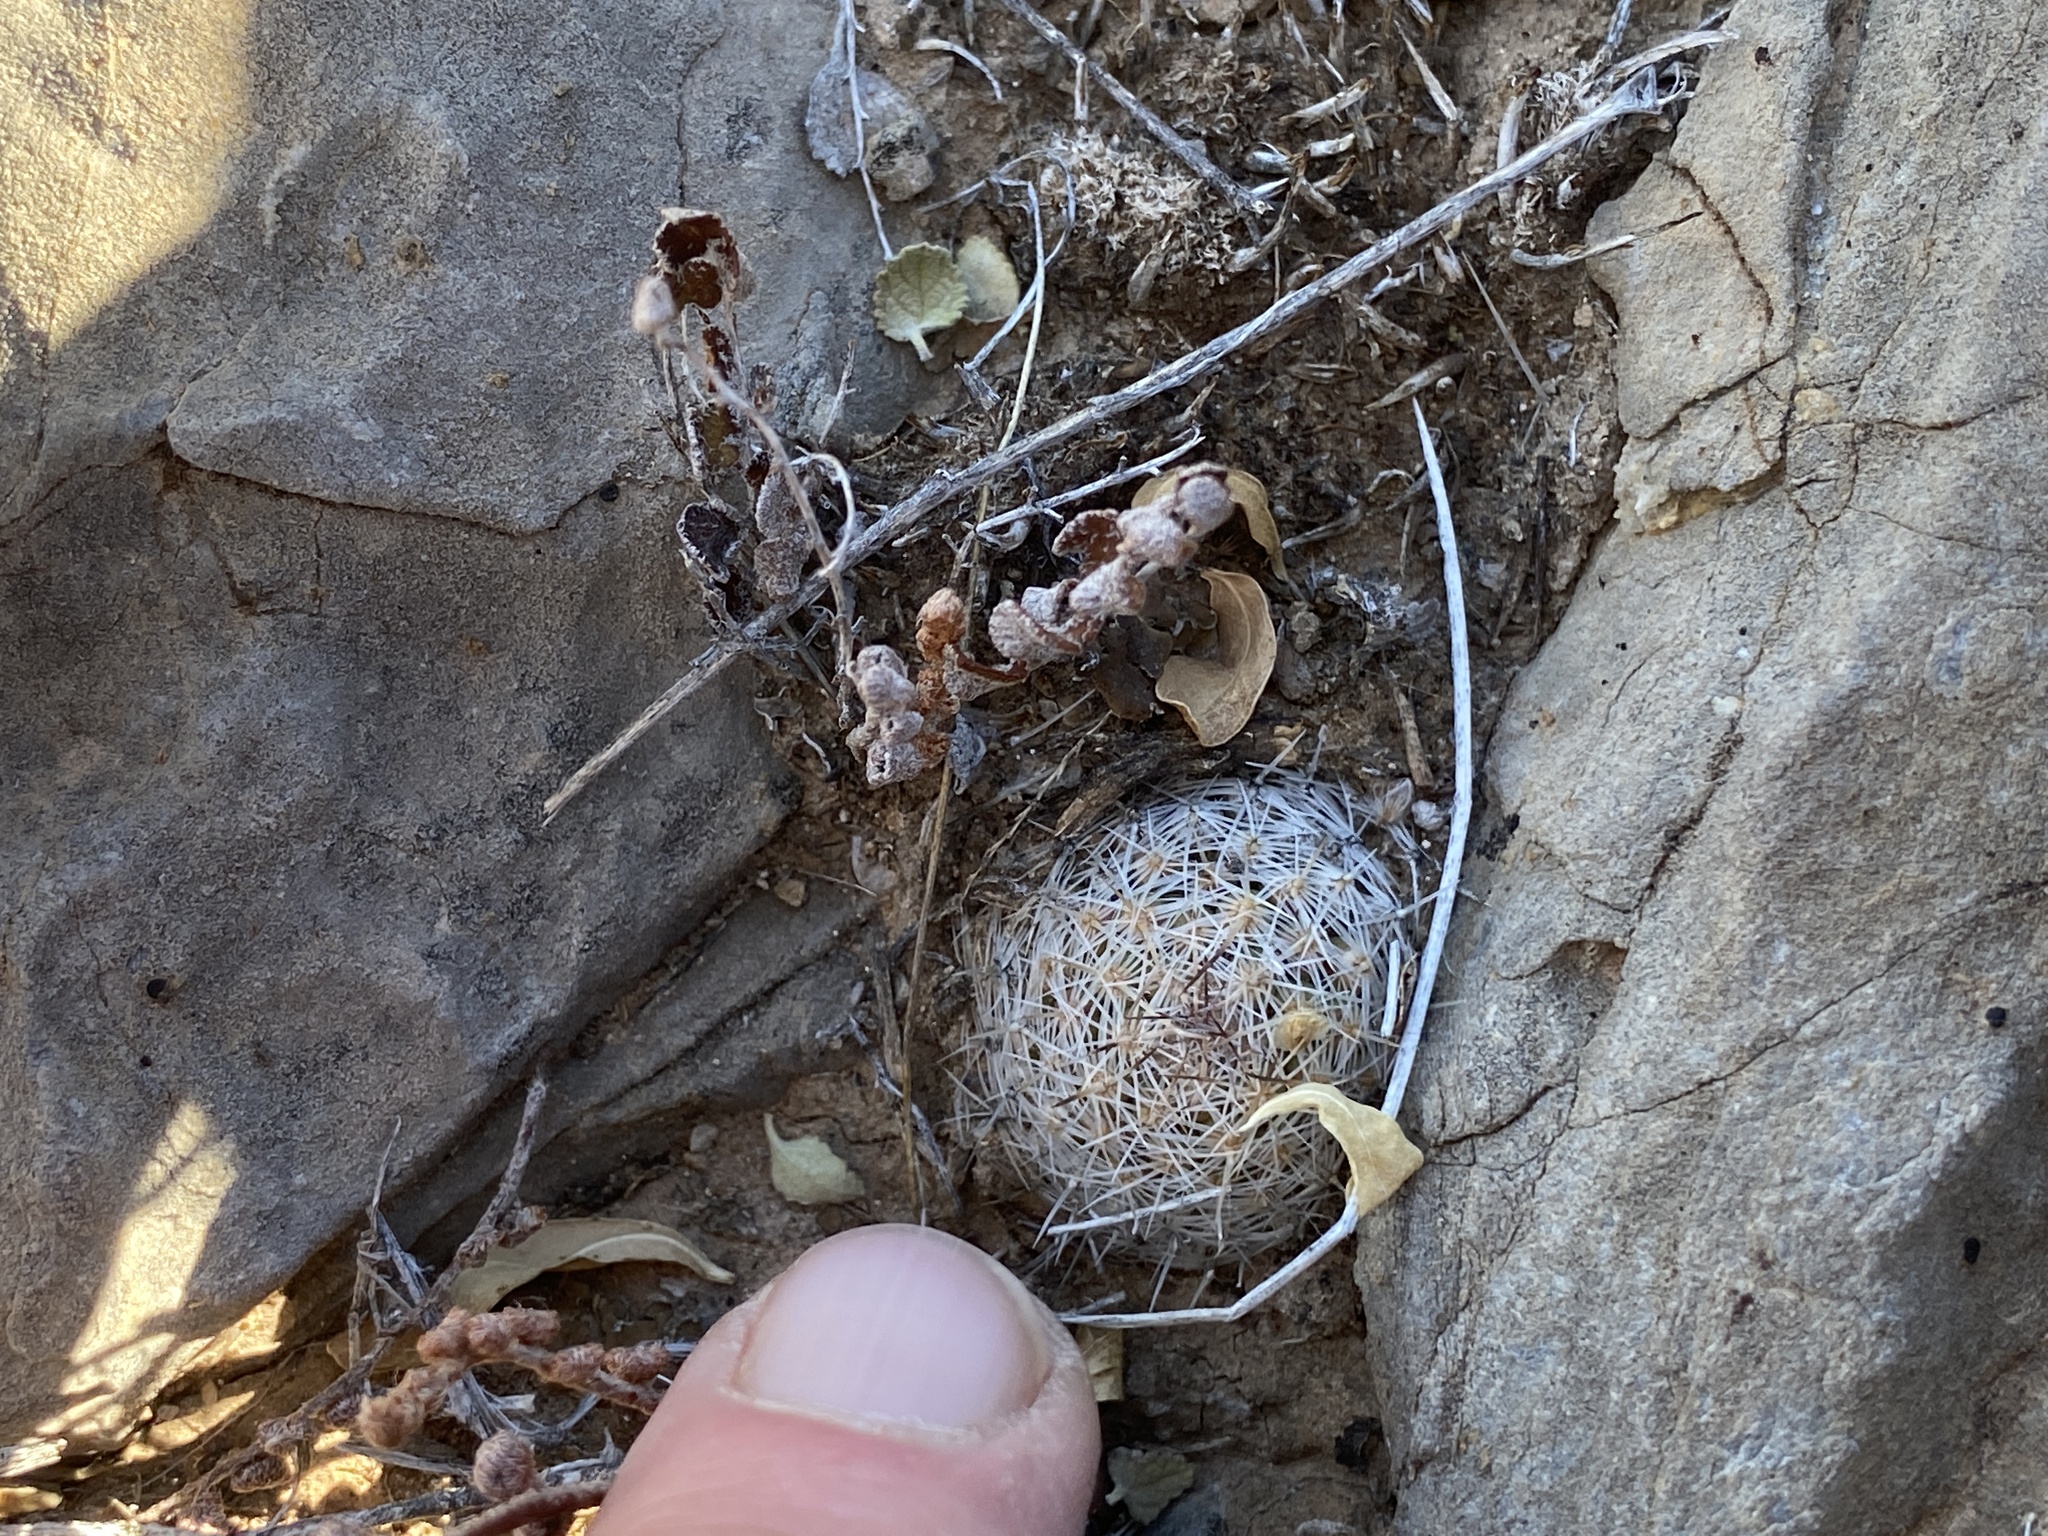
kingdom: Plantae
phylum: Tracheophyta
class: Magnoliopsida
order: Caryophyllales
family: Cactaceae
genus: Pelecyphora
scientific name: Pelecyphora tuberculosa
